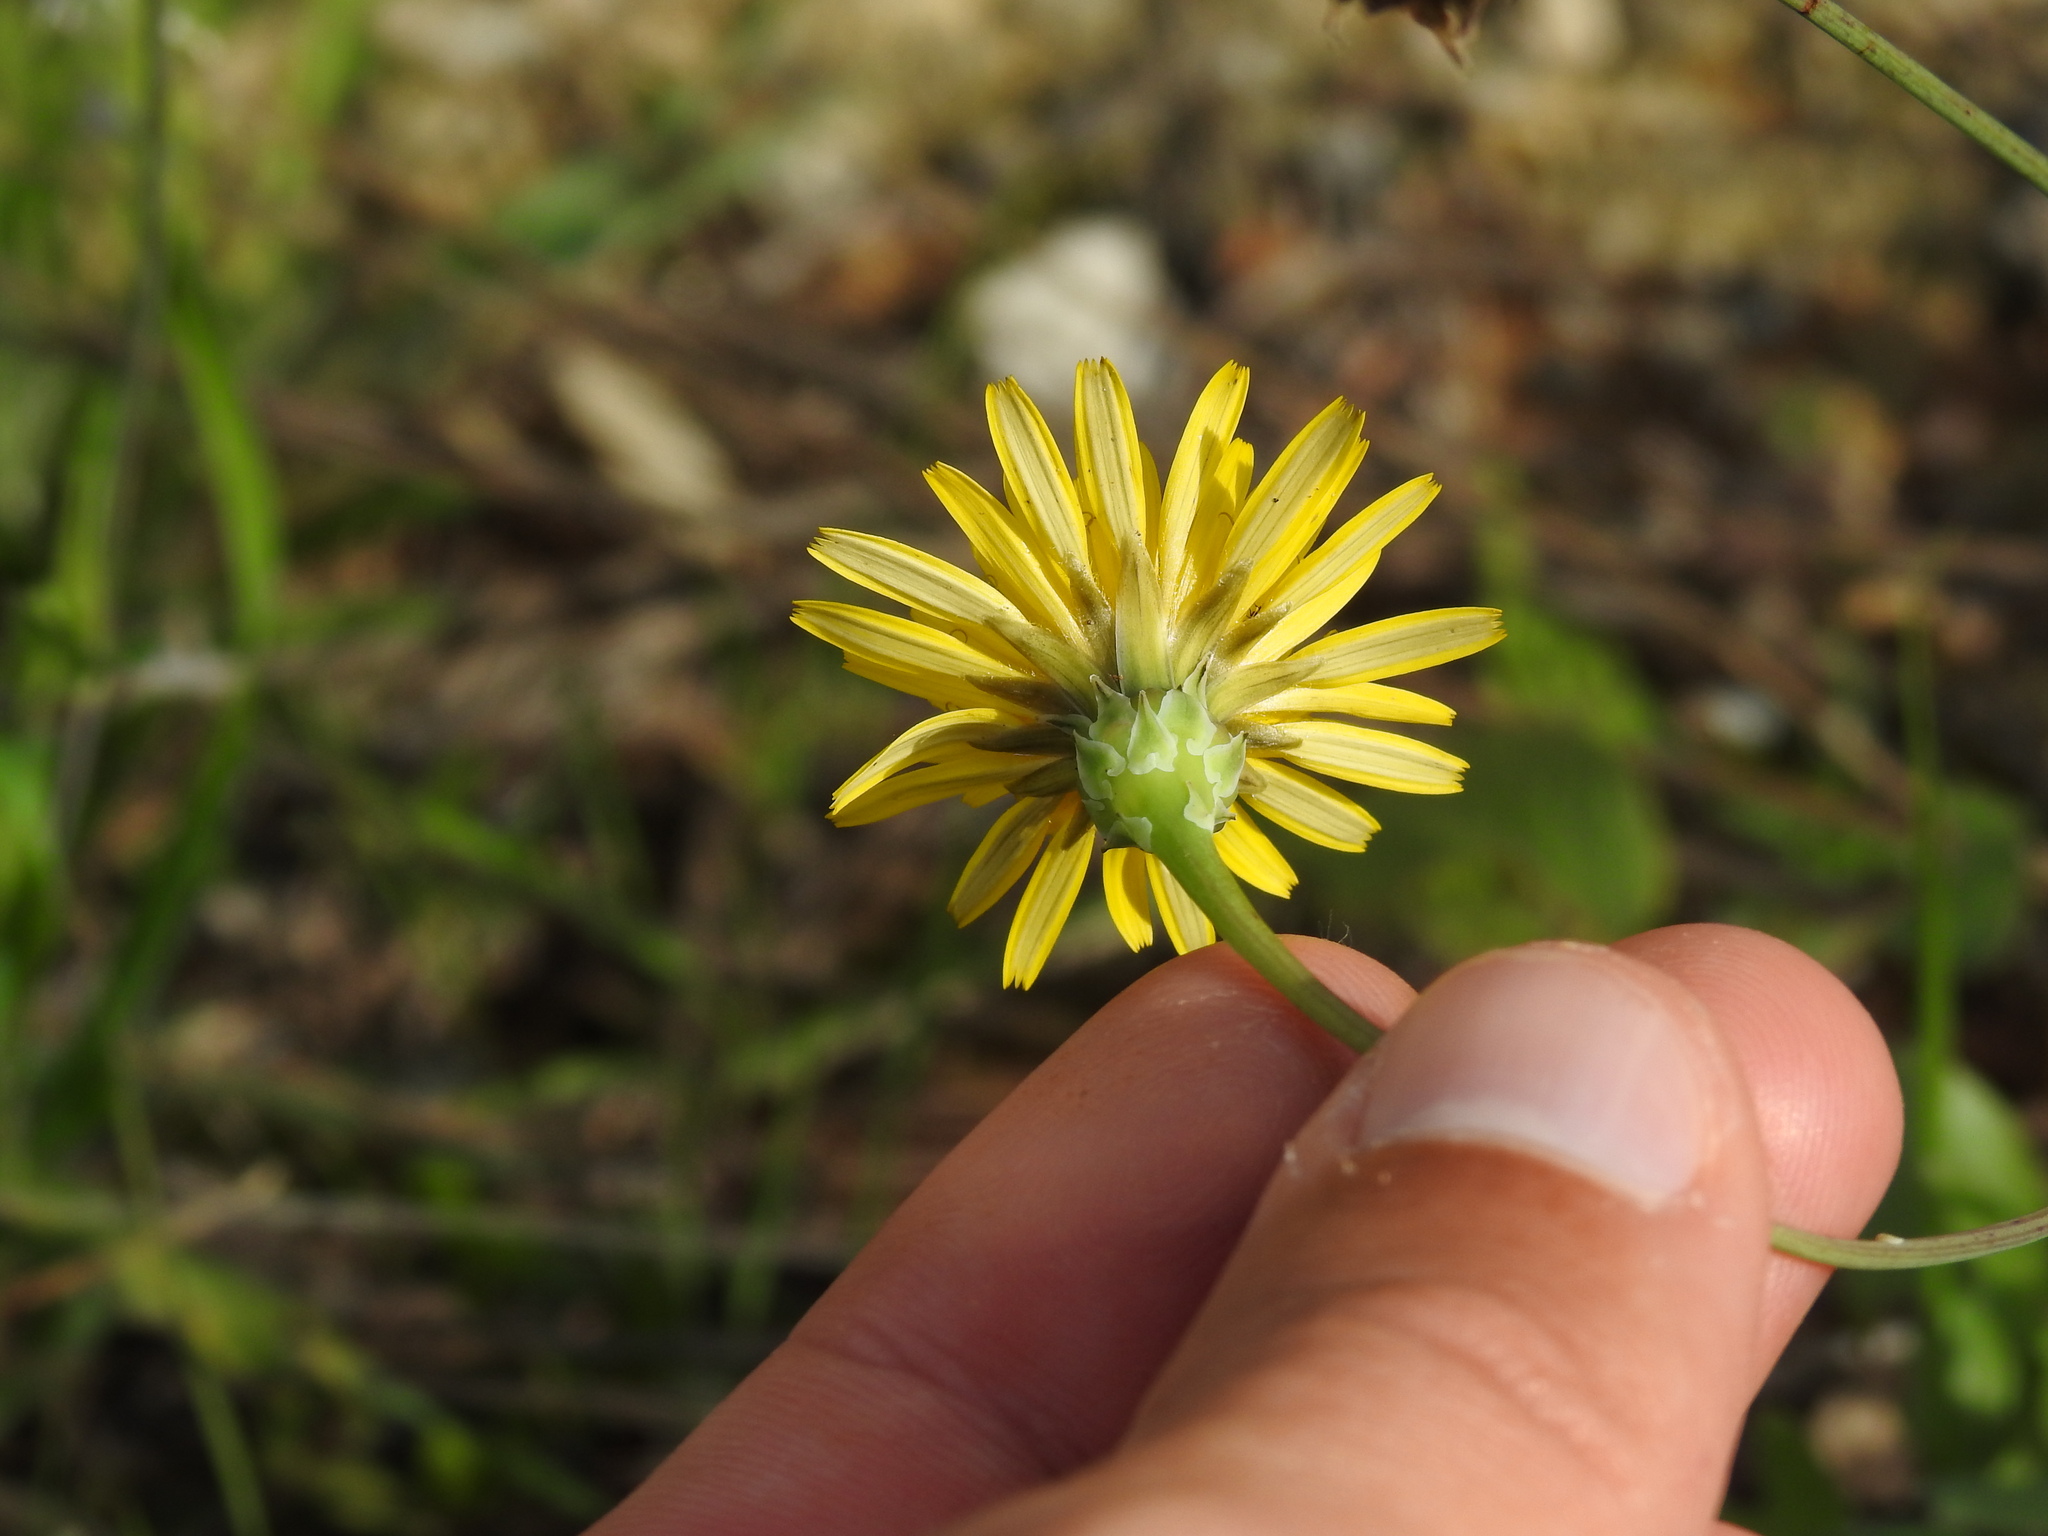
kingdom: Plantae
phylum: Tracheophyta
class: Magnoliopsida
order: Asterales
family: Asteraceae
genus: Reichardia
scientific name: Reichardia picroides
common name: Common brighteyes
